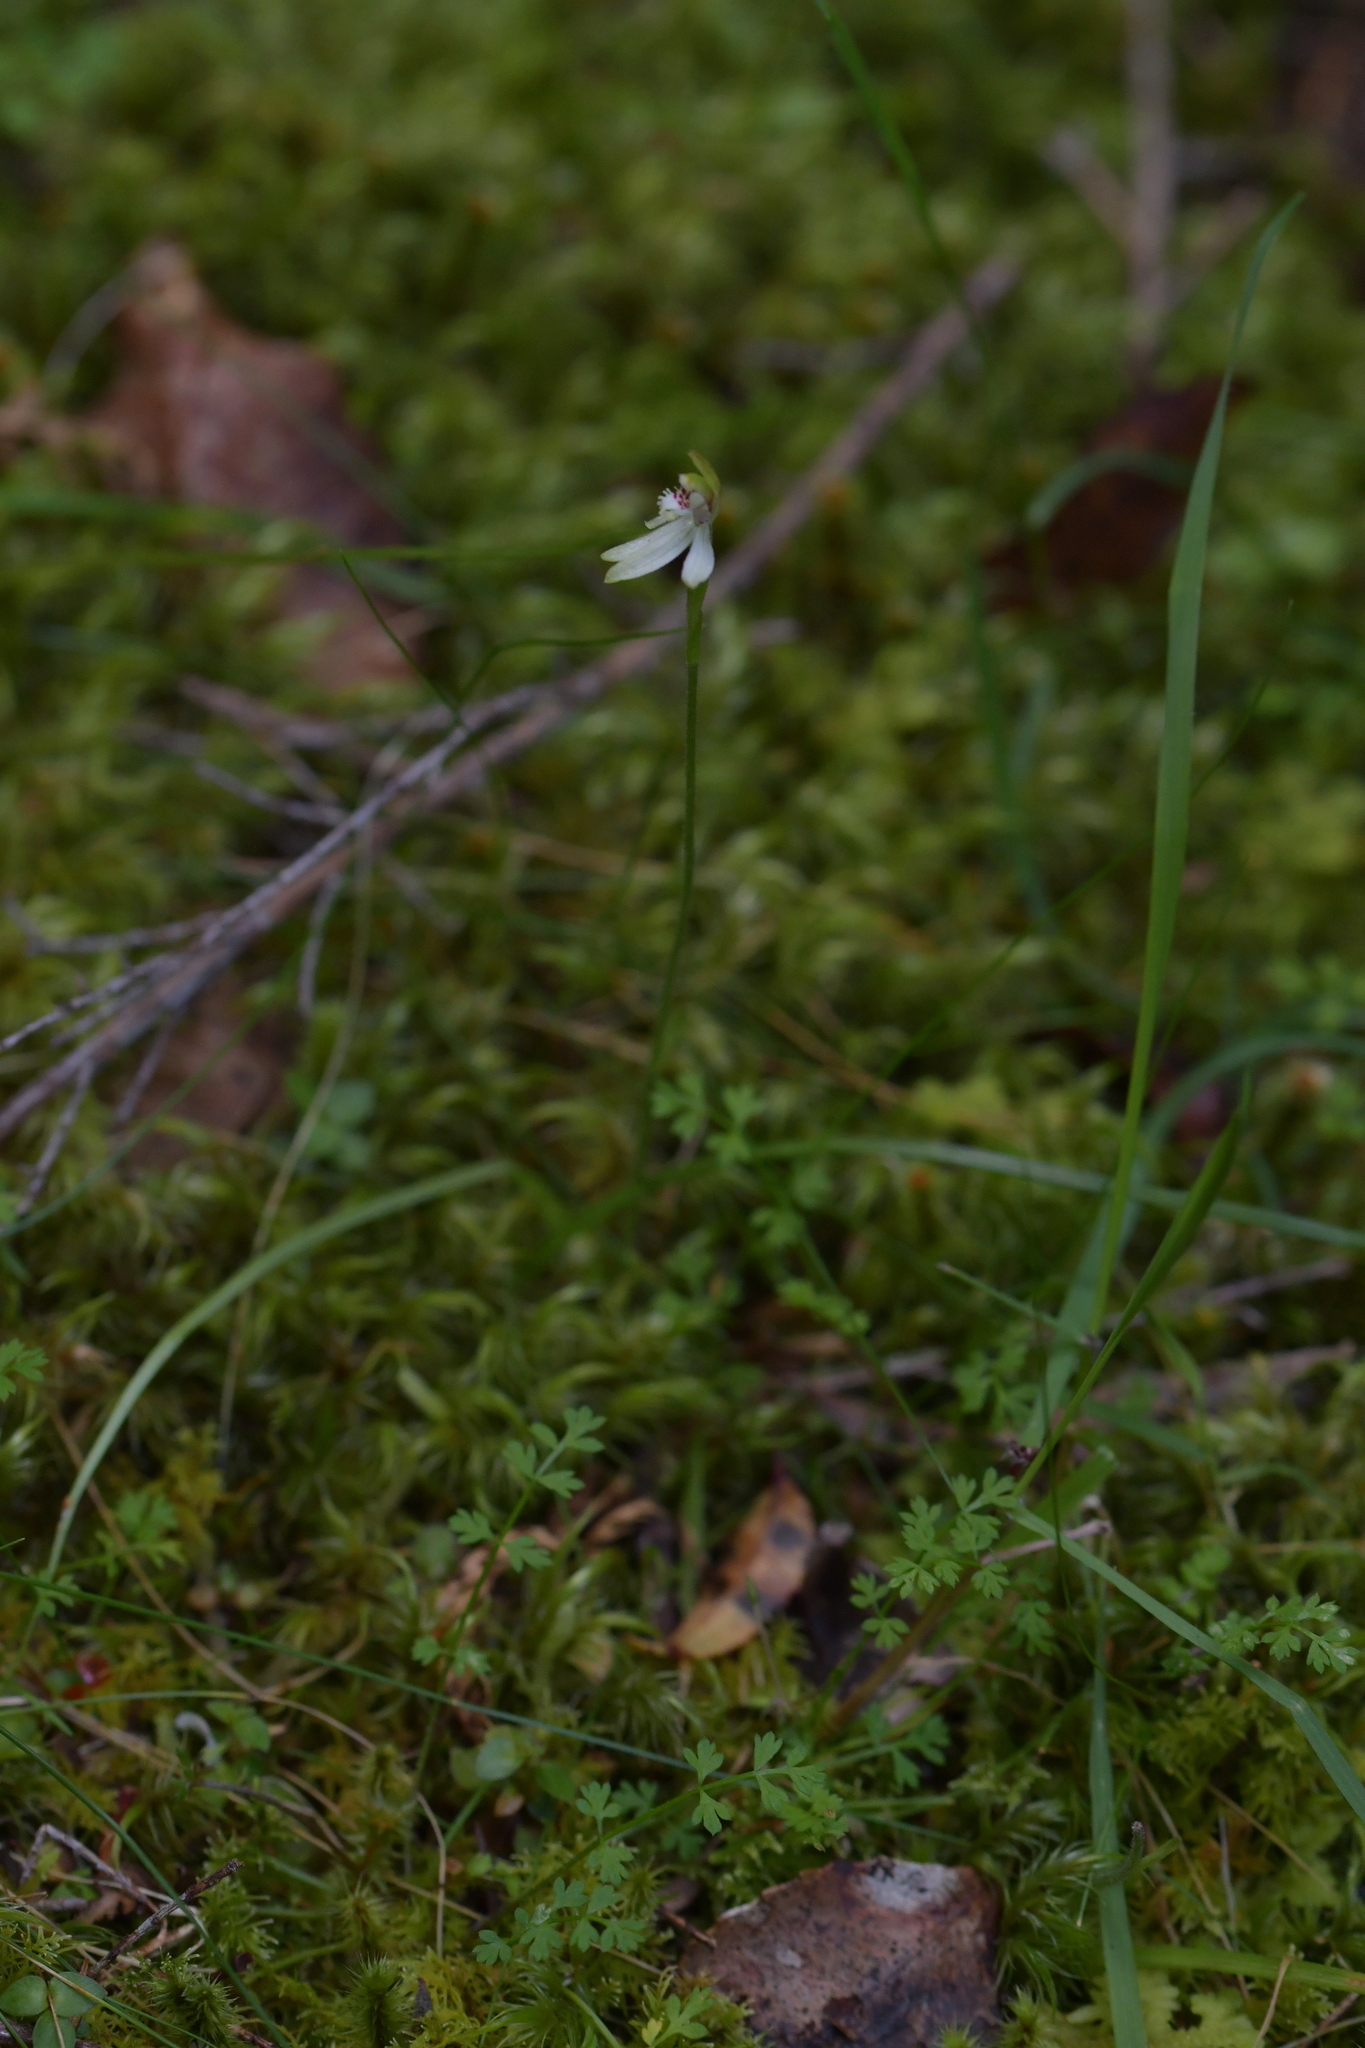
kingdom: Plantae
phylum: Tracheophyta
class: Liliopsida
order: Asparagales
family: Orchidaceae
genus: Caladenia
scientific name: Caladenia chlorostyla
